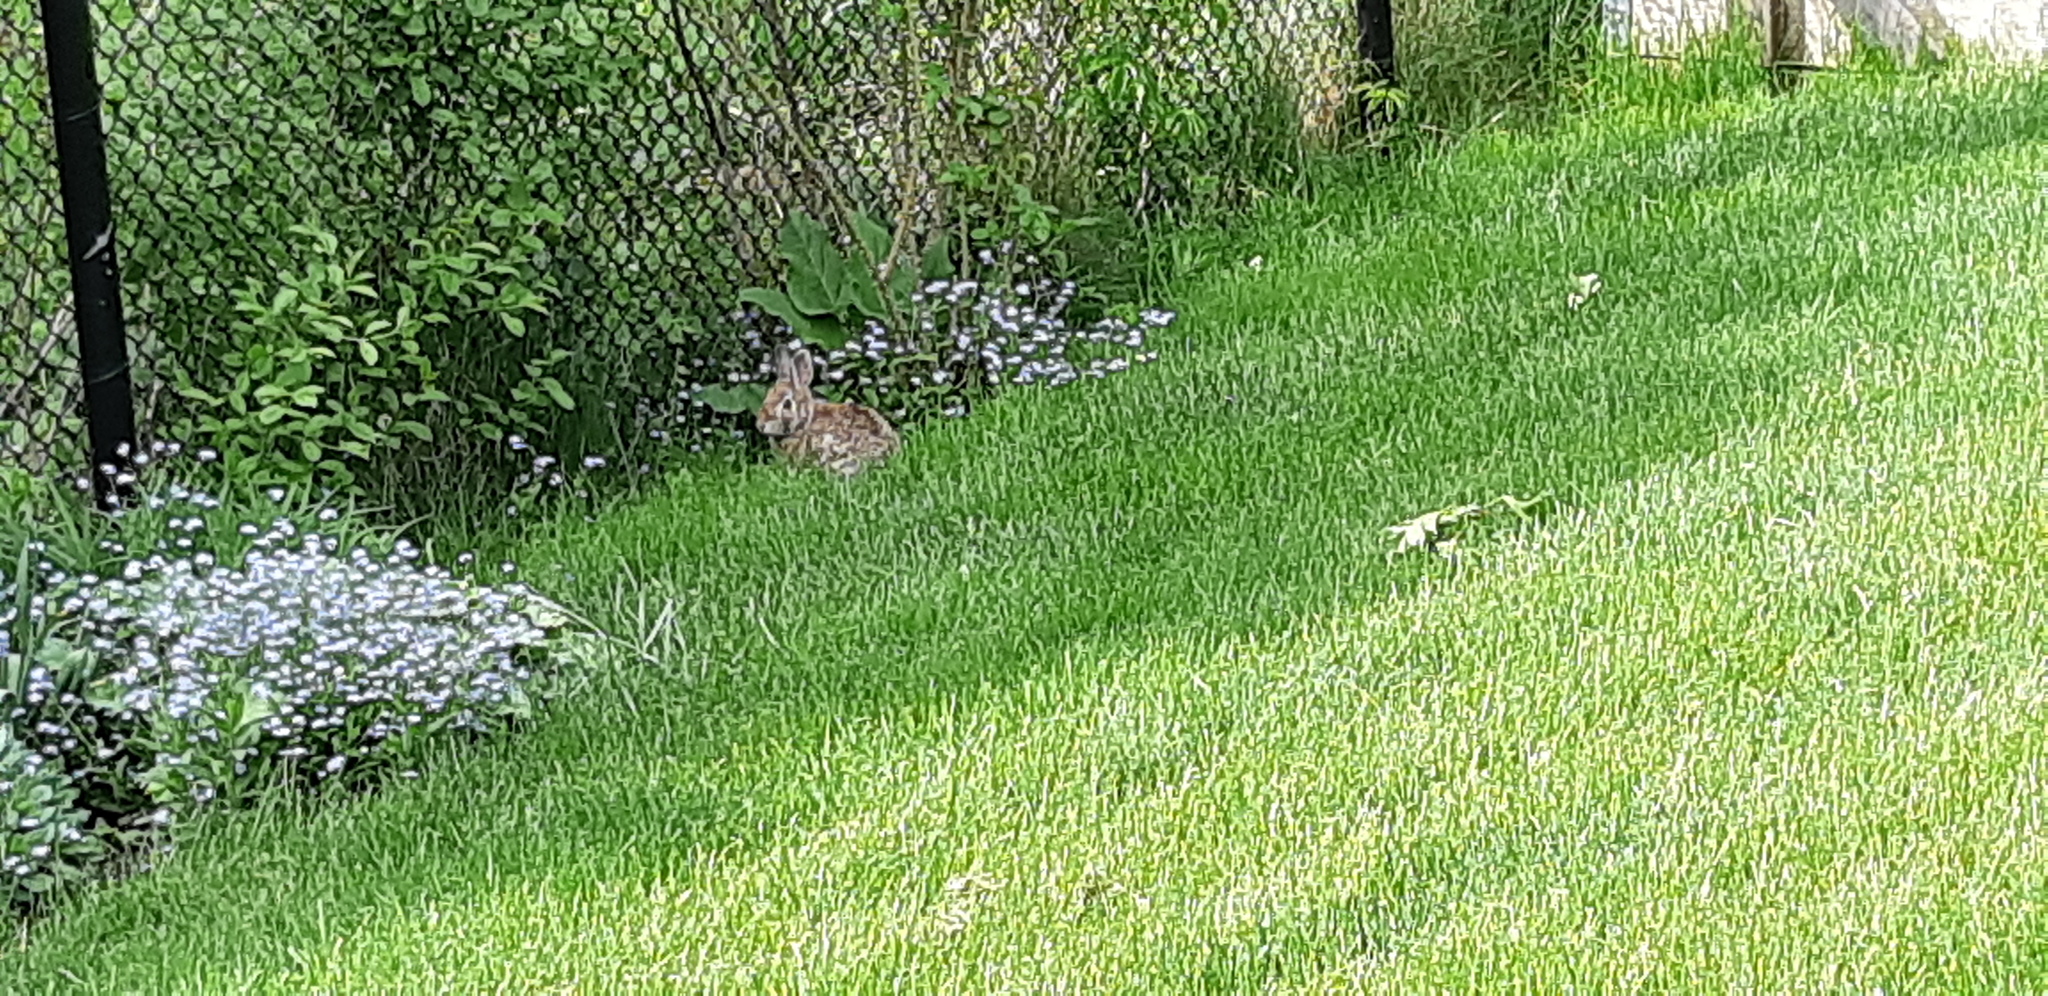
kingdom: Animalia
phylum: Chordata
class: Mammalia
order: Lagomorpha
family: Leporidae
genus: Sylvilagus
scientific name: Sylvilagus floridanus
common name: Eastern cottontail
